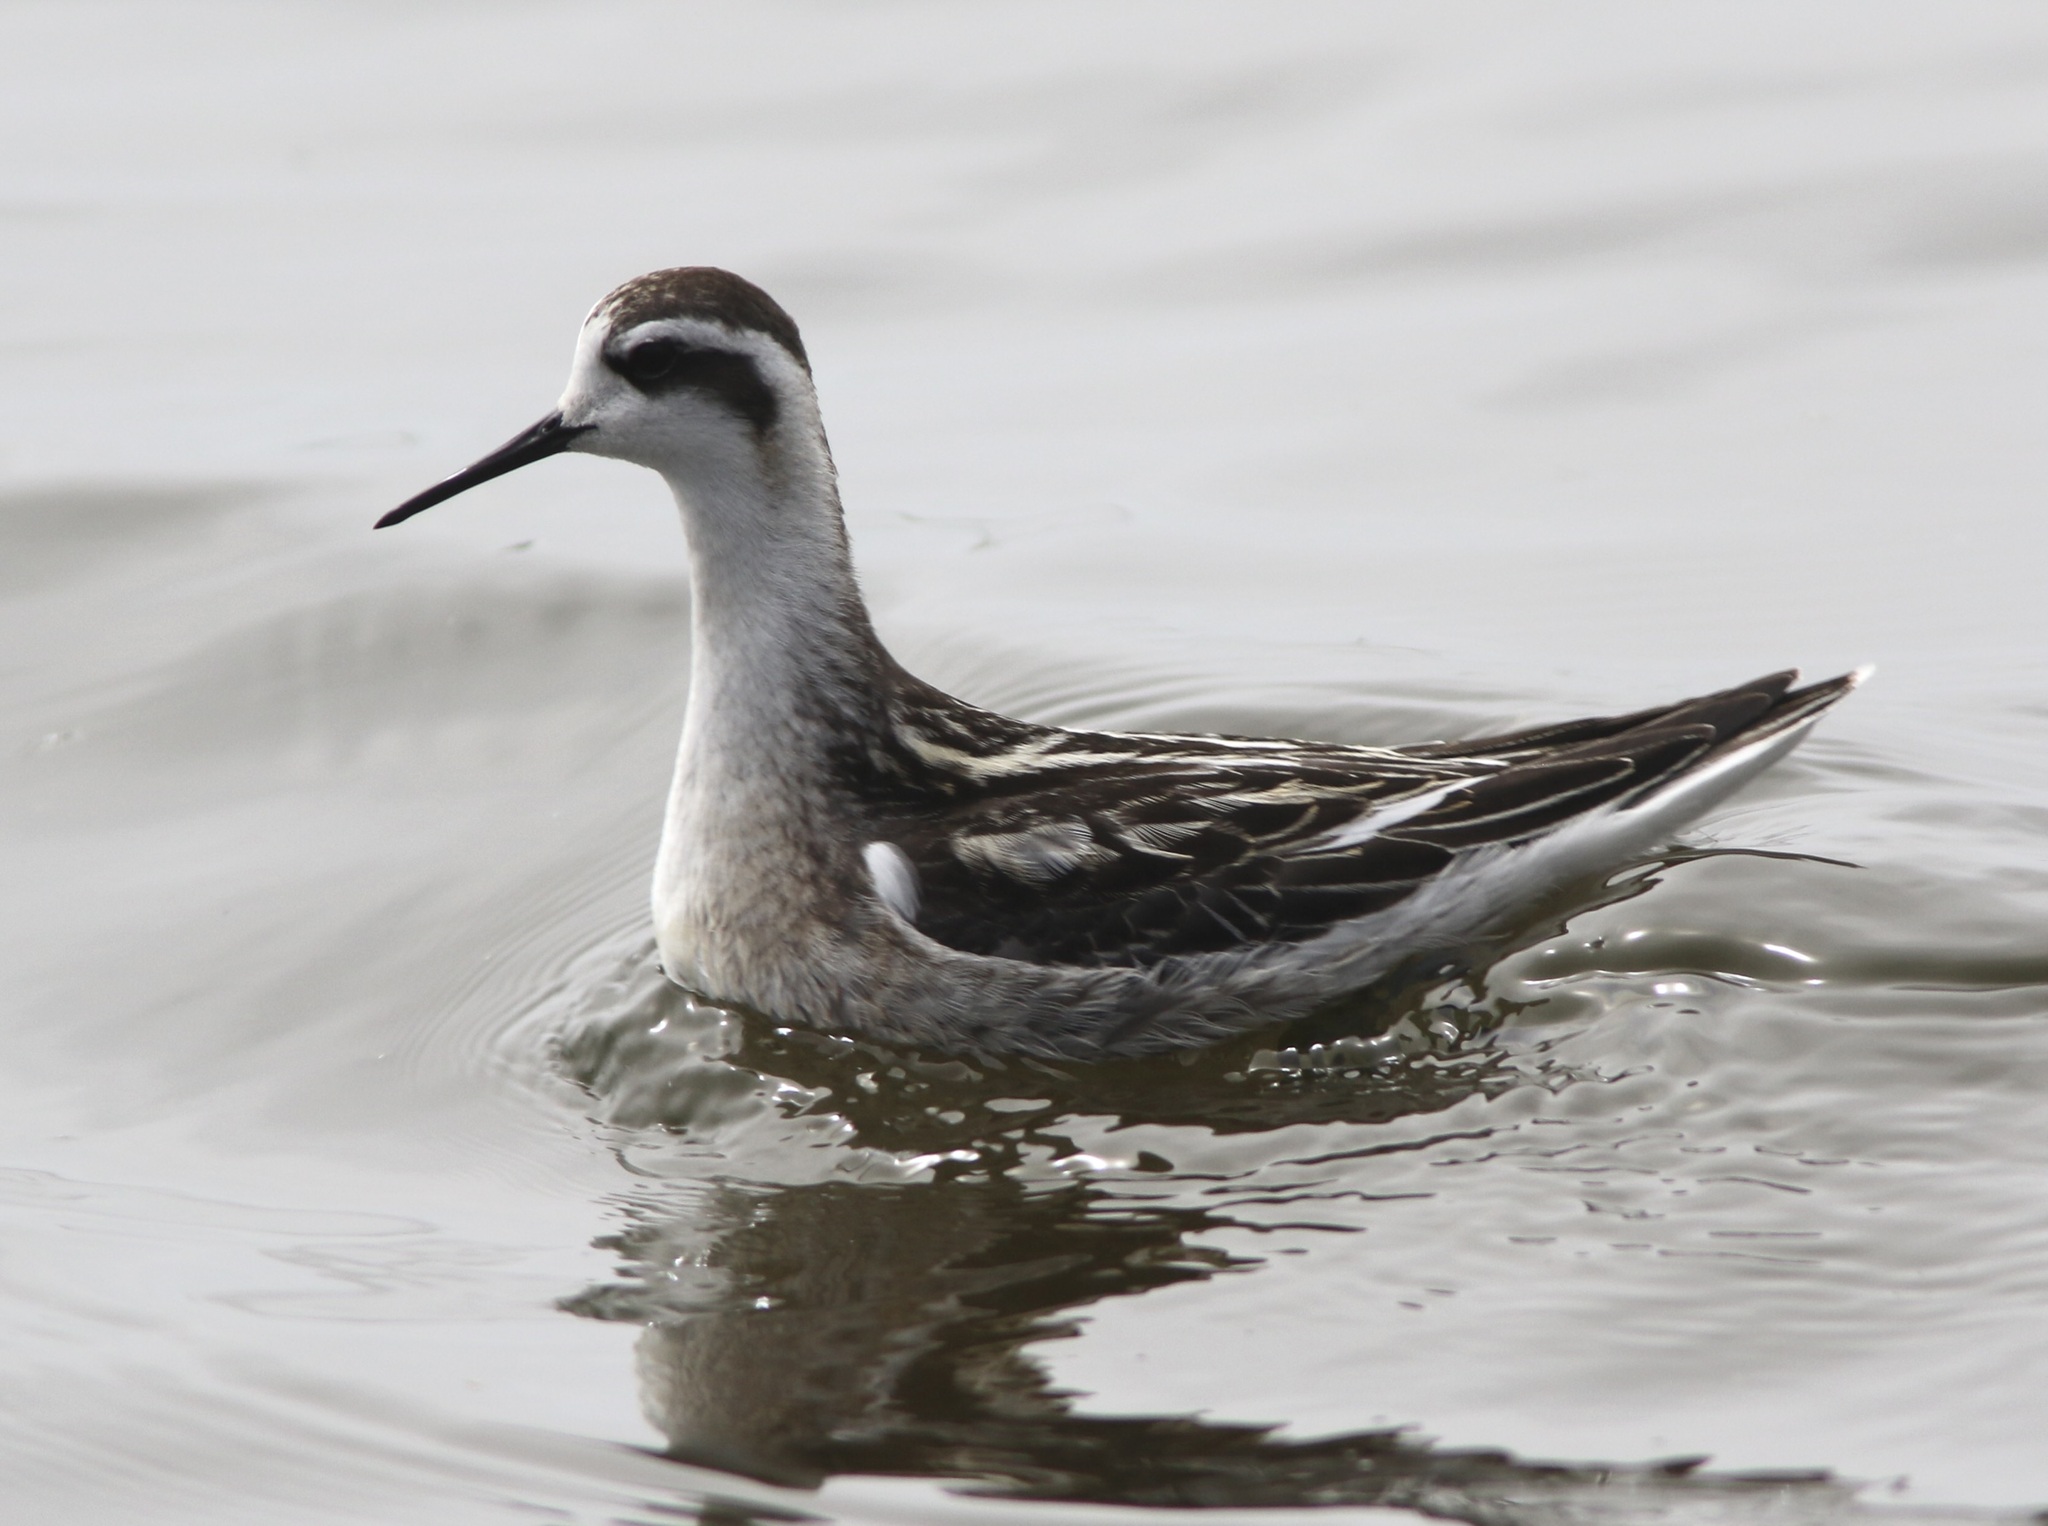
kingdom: Animalia
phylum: Chordata
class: Aves
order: Charadriiformes
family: Scolopacidae
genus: Phalaropus
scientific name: Phalaropus lobatus
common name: Red-necked phalarope
